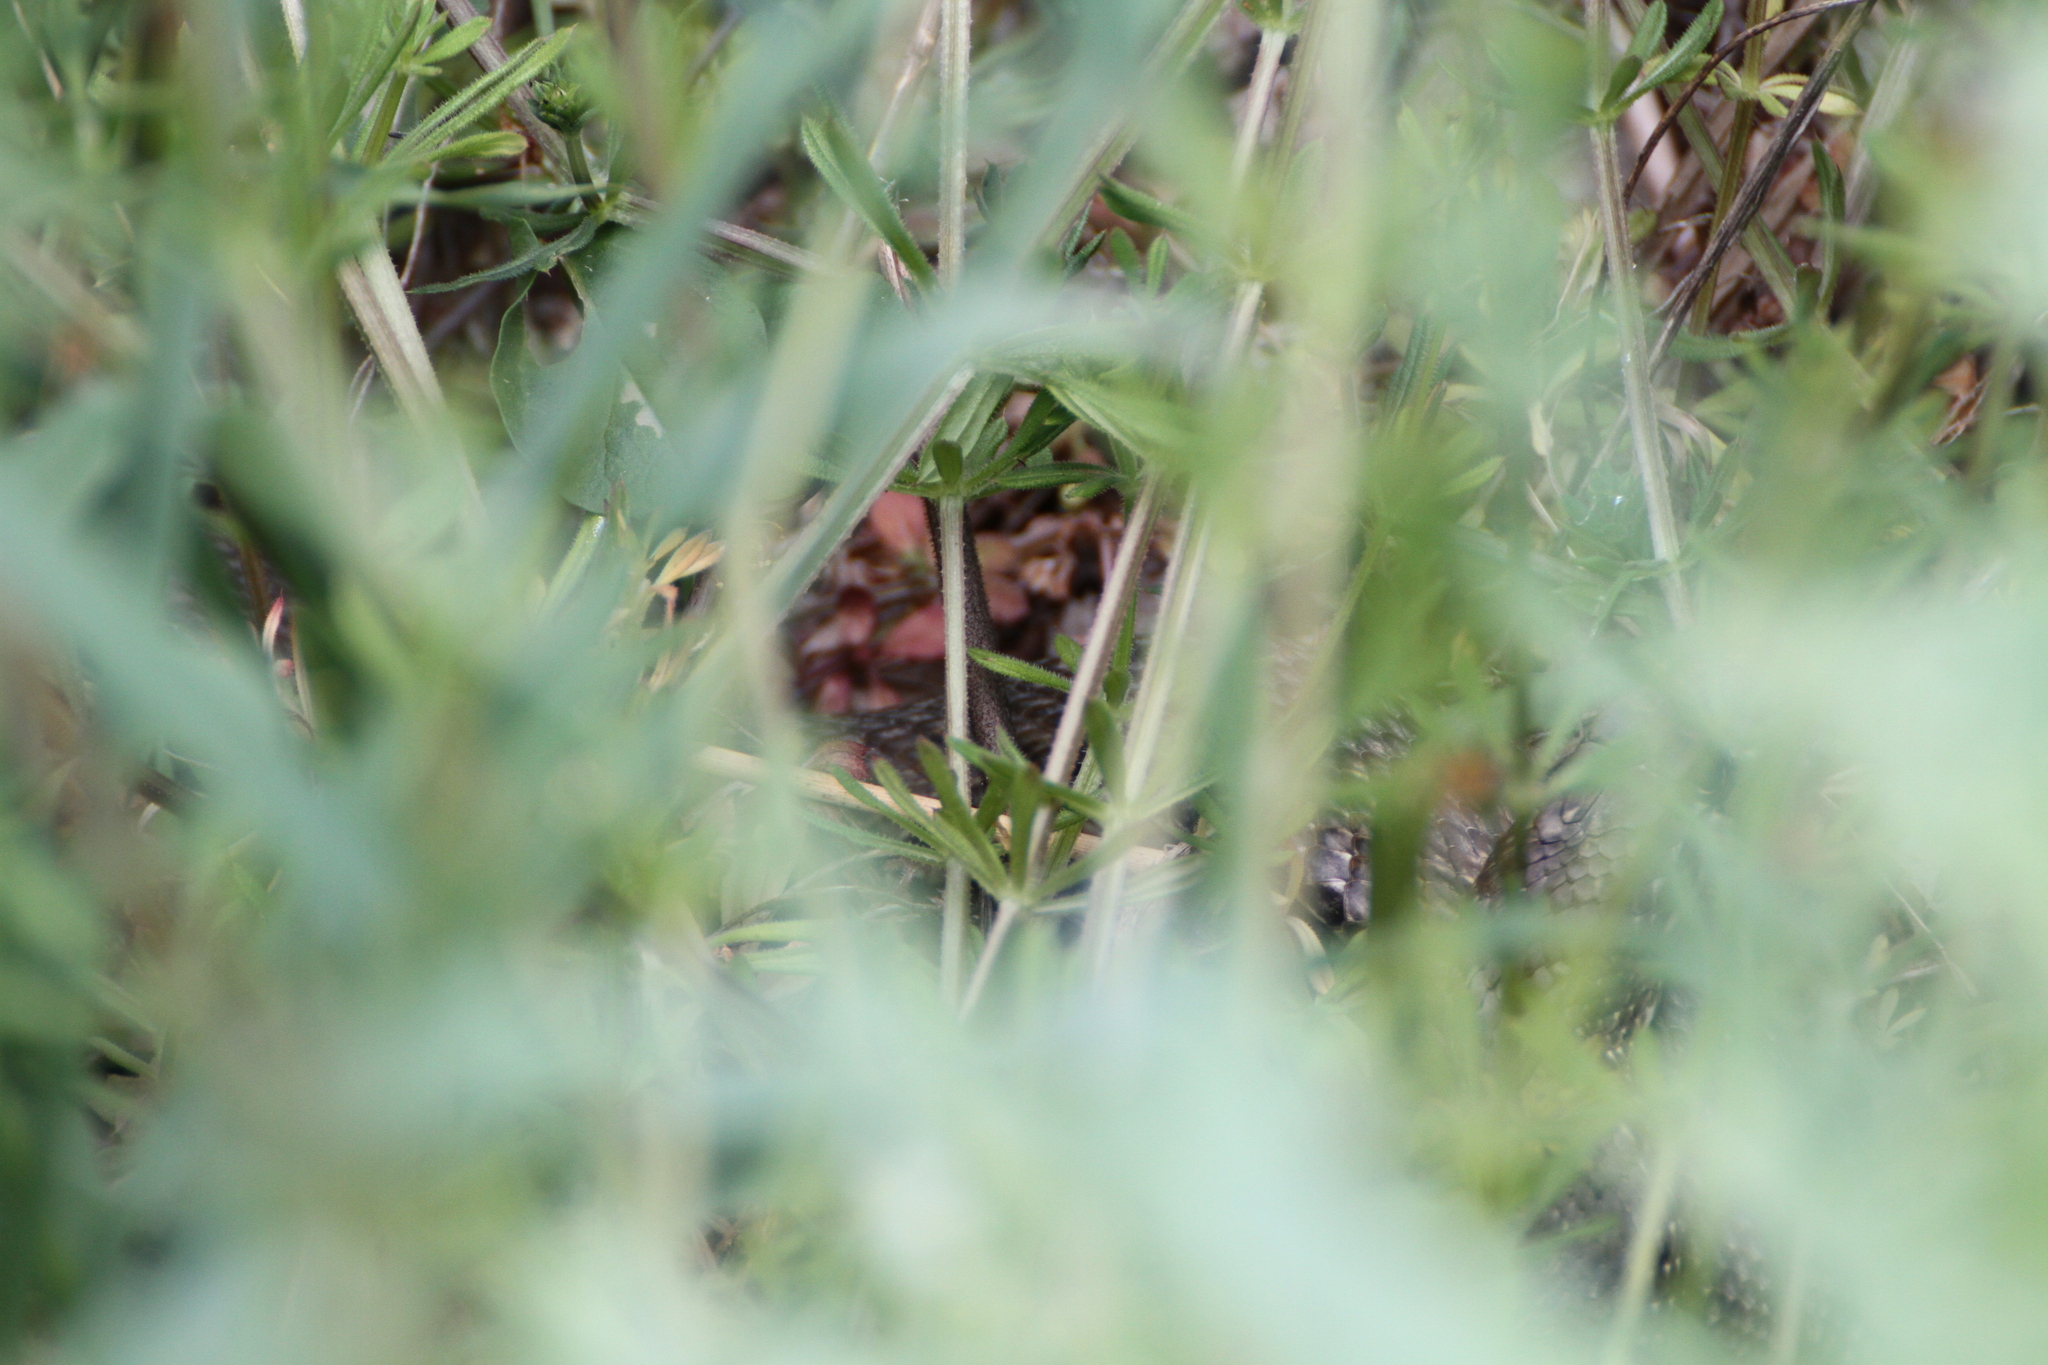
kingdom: Animalia
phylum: Chordata
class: Squamata
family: Psammophiidae
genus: Malpolon
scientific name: Malpolon monspessulanus
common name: Montpellier snake
